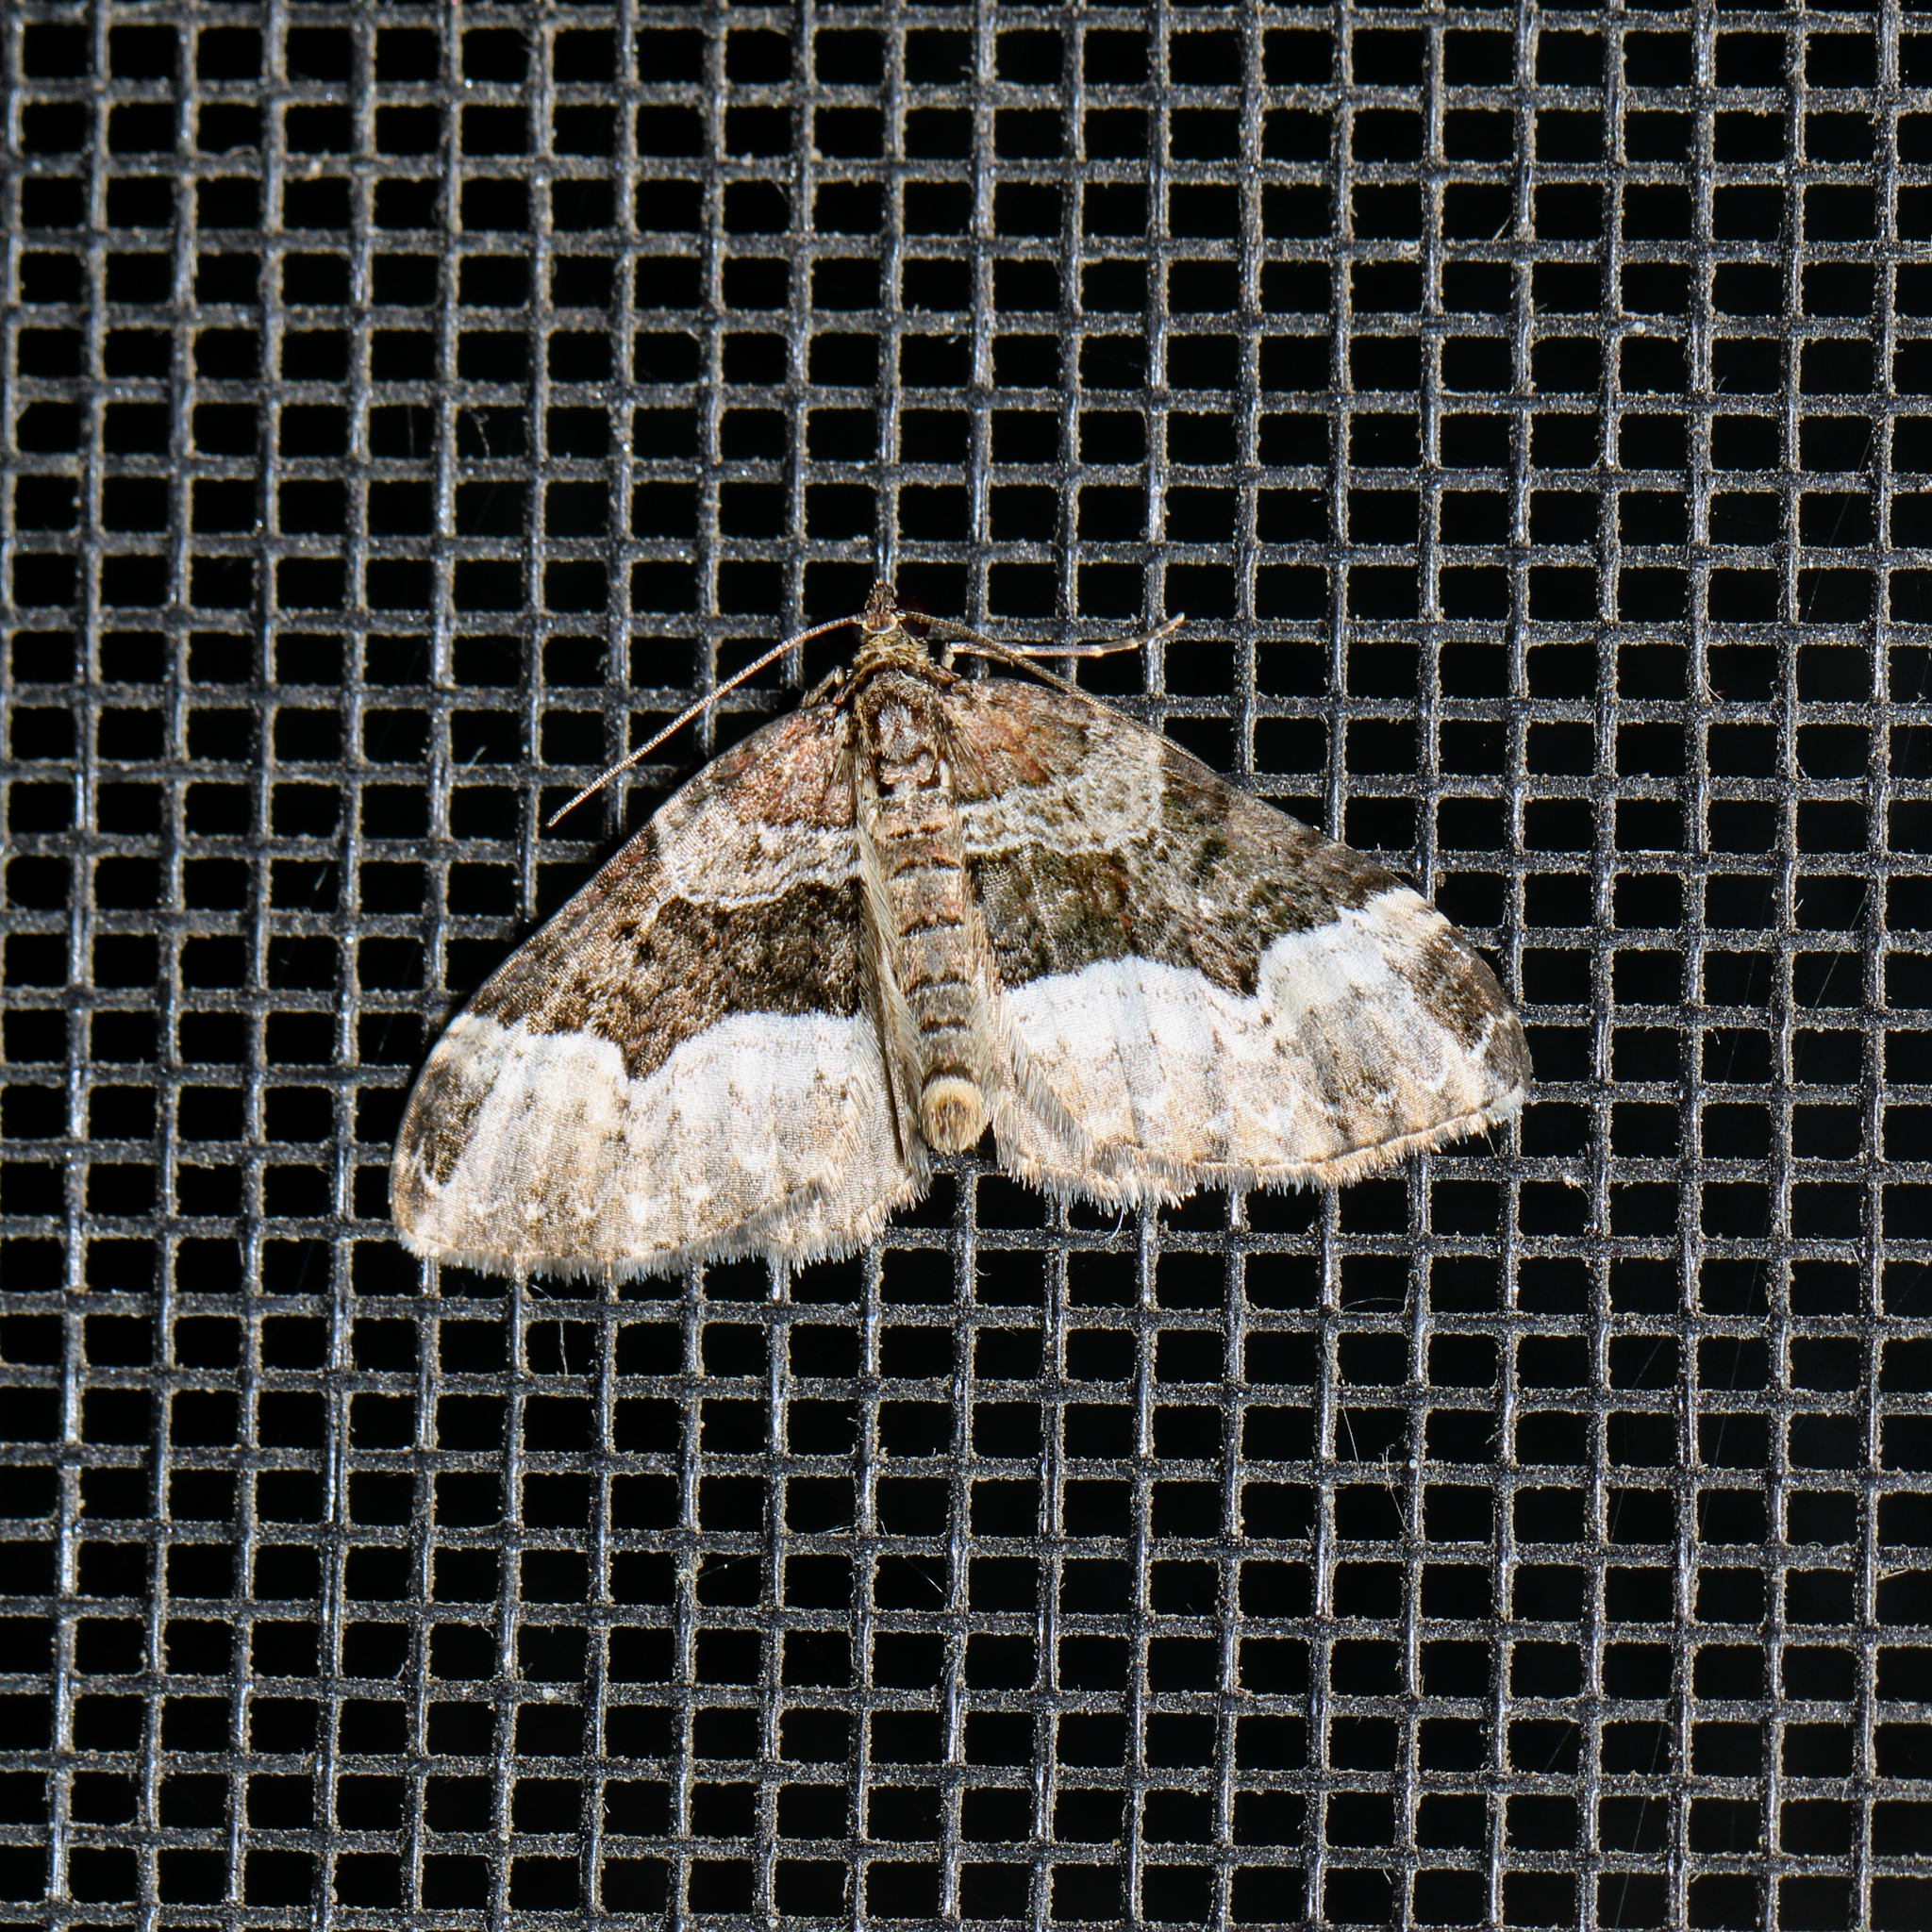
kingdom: Animalia
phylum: Arthropoda
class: Insecta
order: Lepidoptera
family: Geometridae
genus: Euphyia
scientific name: Euphyia intermediata
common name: Sharp-angled carpet
